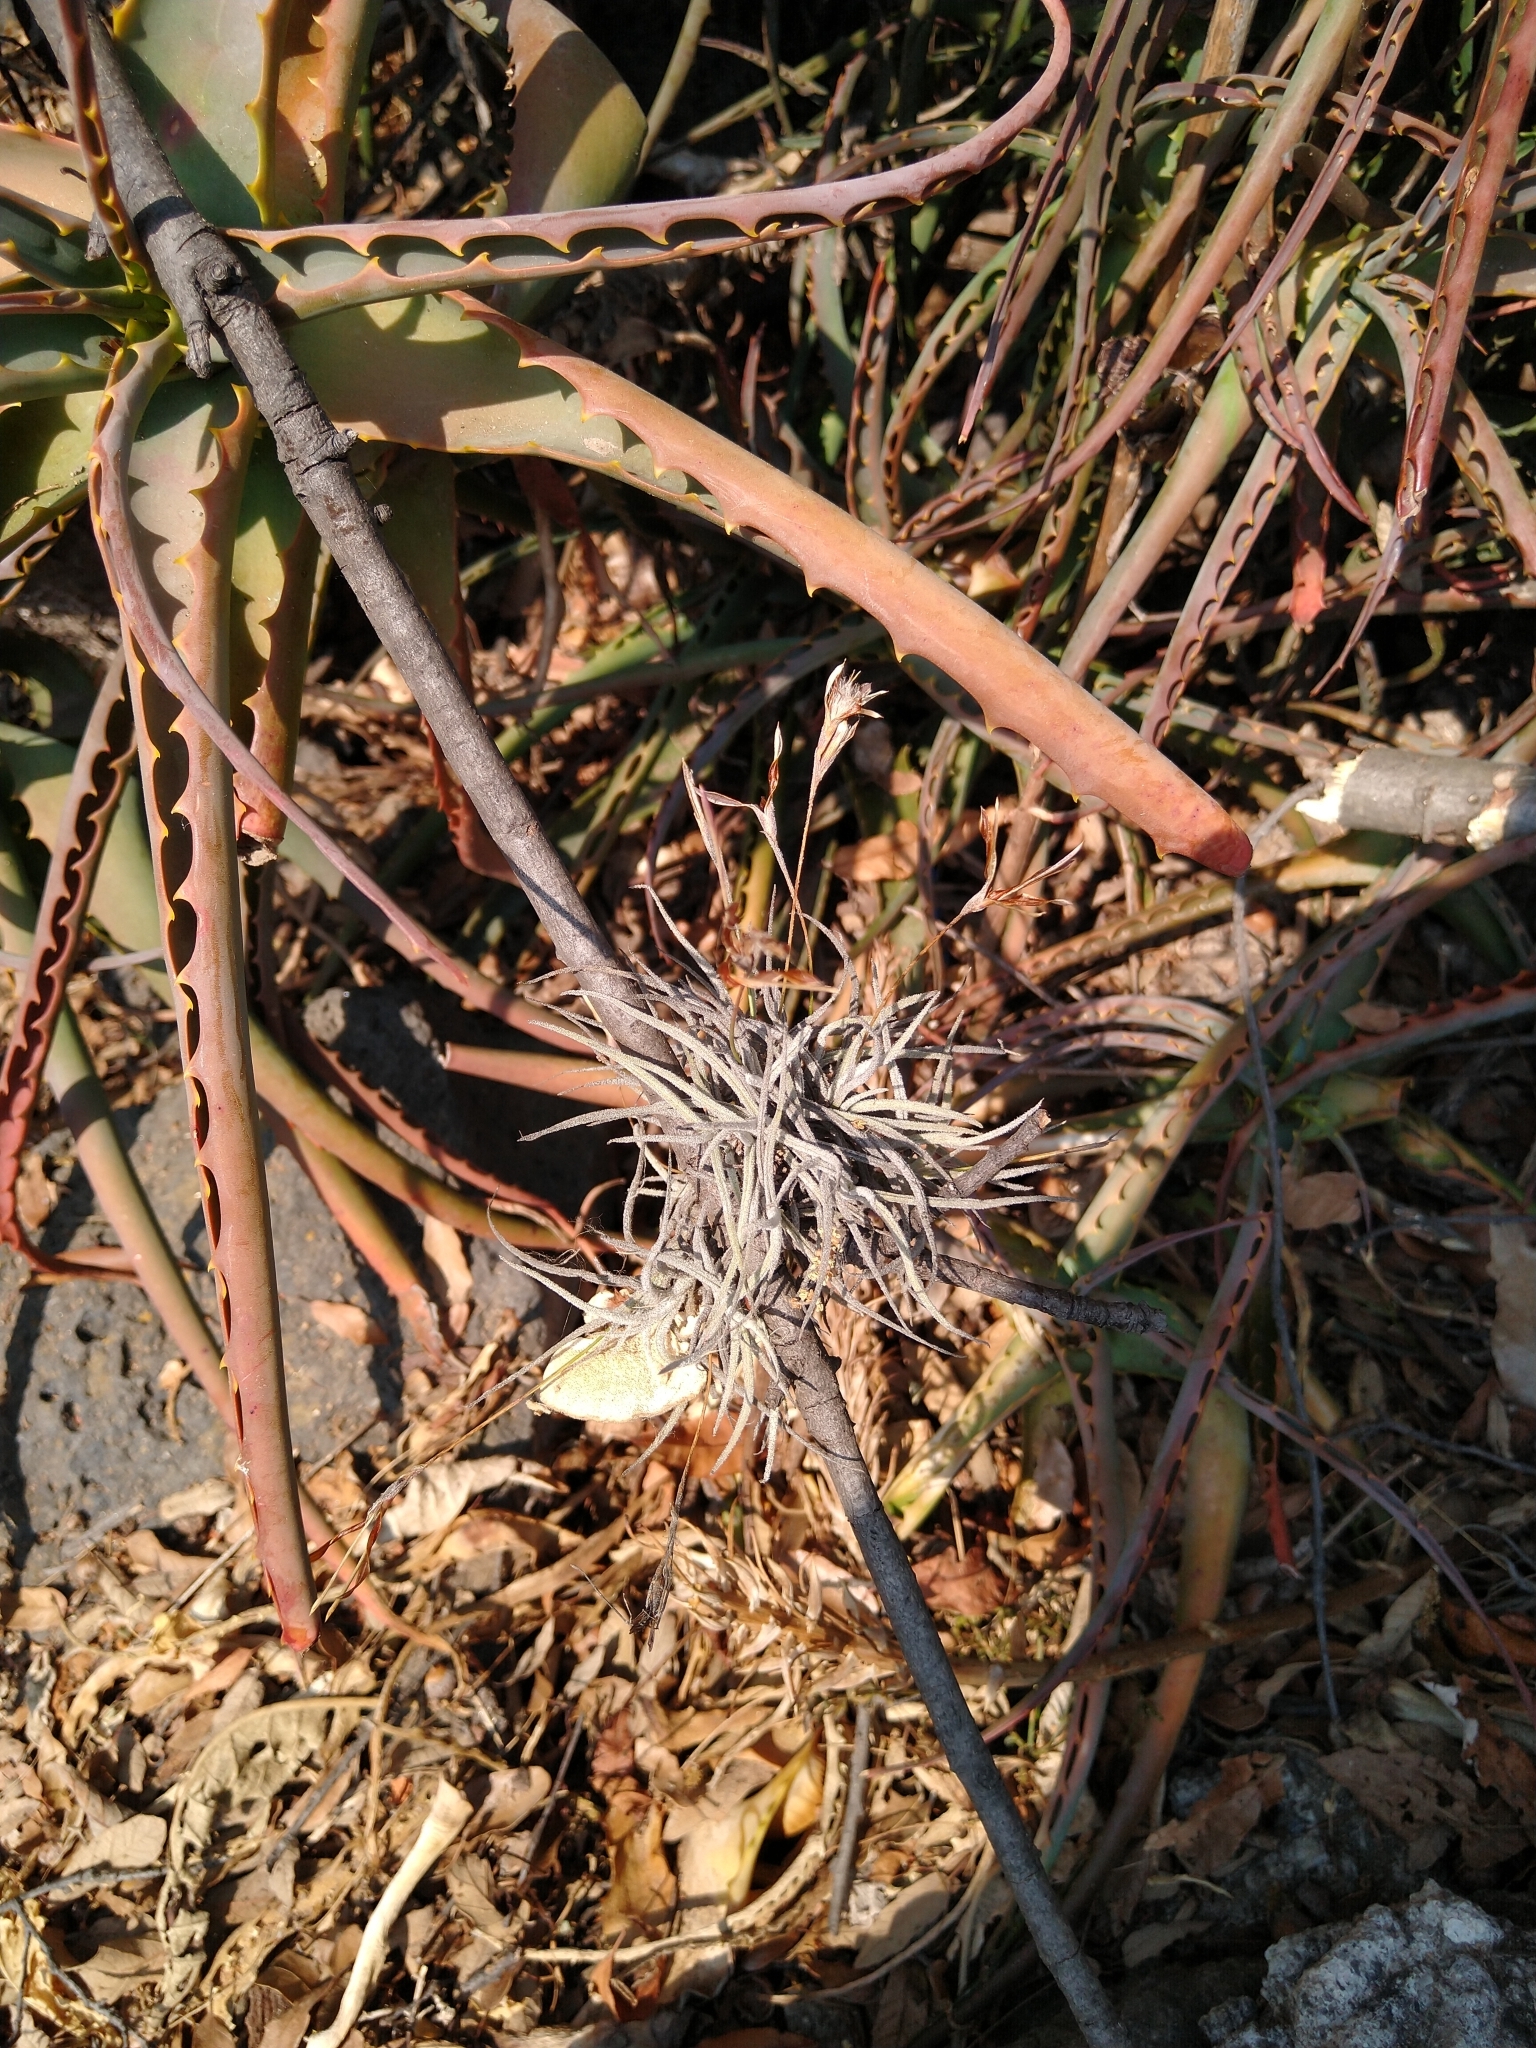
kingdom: Plantae
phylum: Tracheophyta
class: Liliopsida
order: Poales
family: Bromeliaceae
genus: Tillandsia
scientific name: Tillandsia recurvata
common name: Small ballmoss
